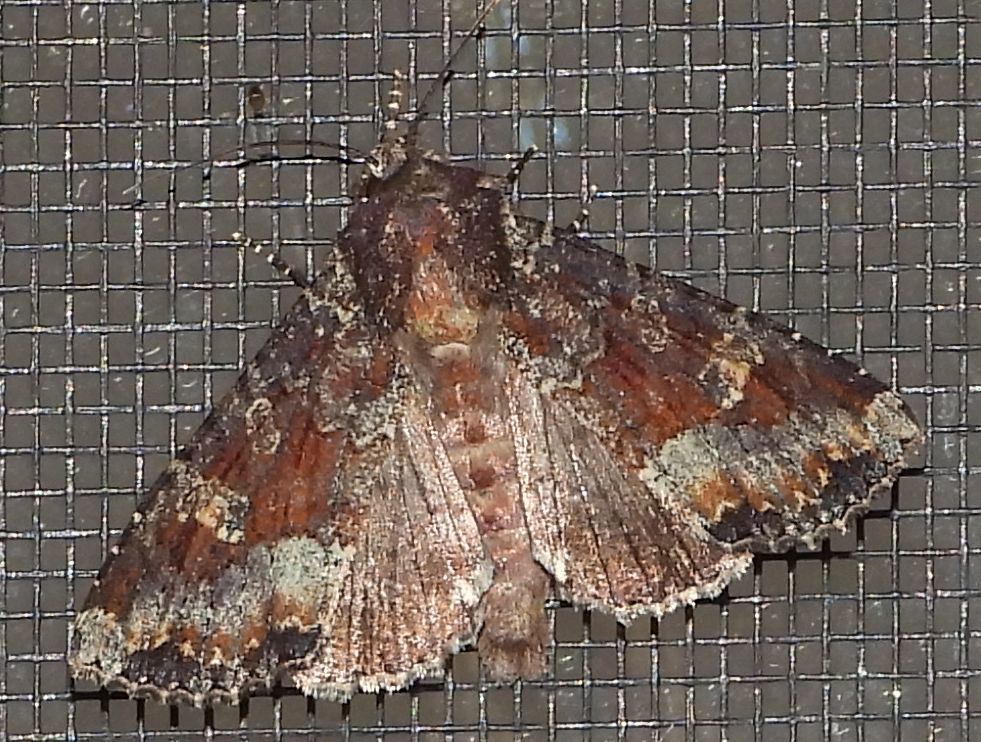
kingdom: Animalia
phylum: Arthropoda
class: Insecta
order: Lepidoptera
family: Noctuidae
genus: Apamea
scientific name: Apamea amputatrix
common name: Yellow-headed cutworm moth
